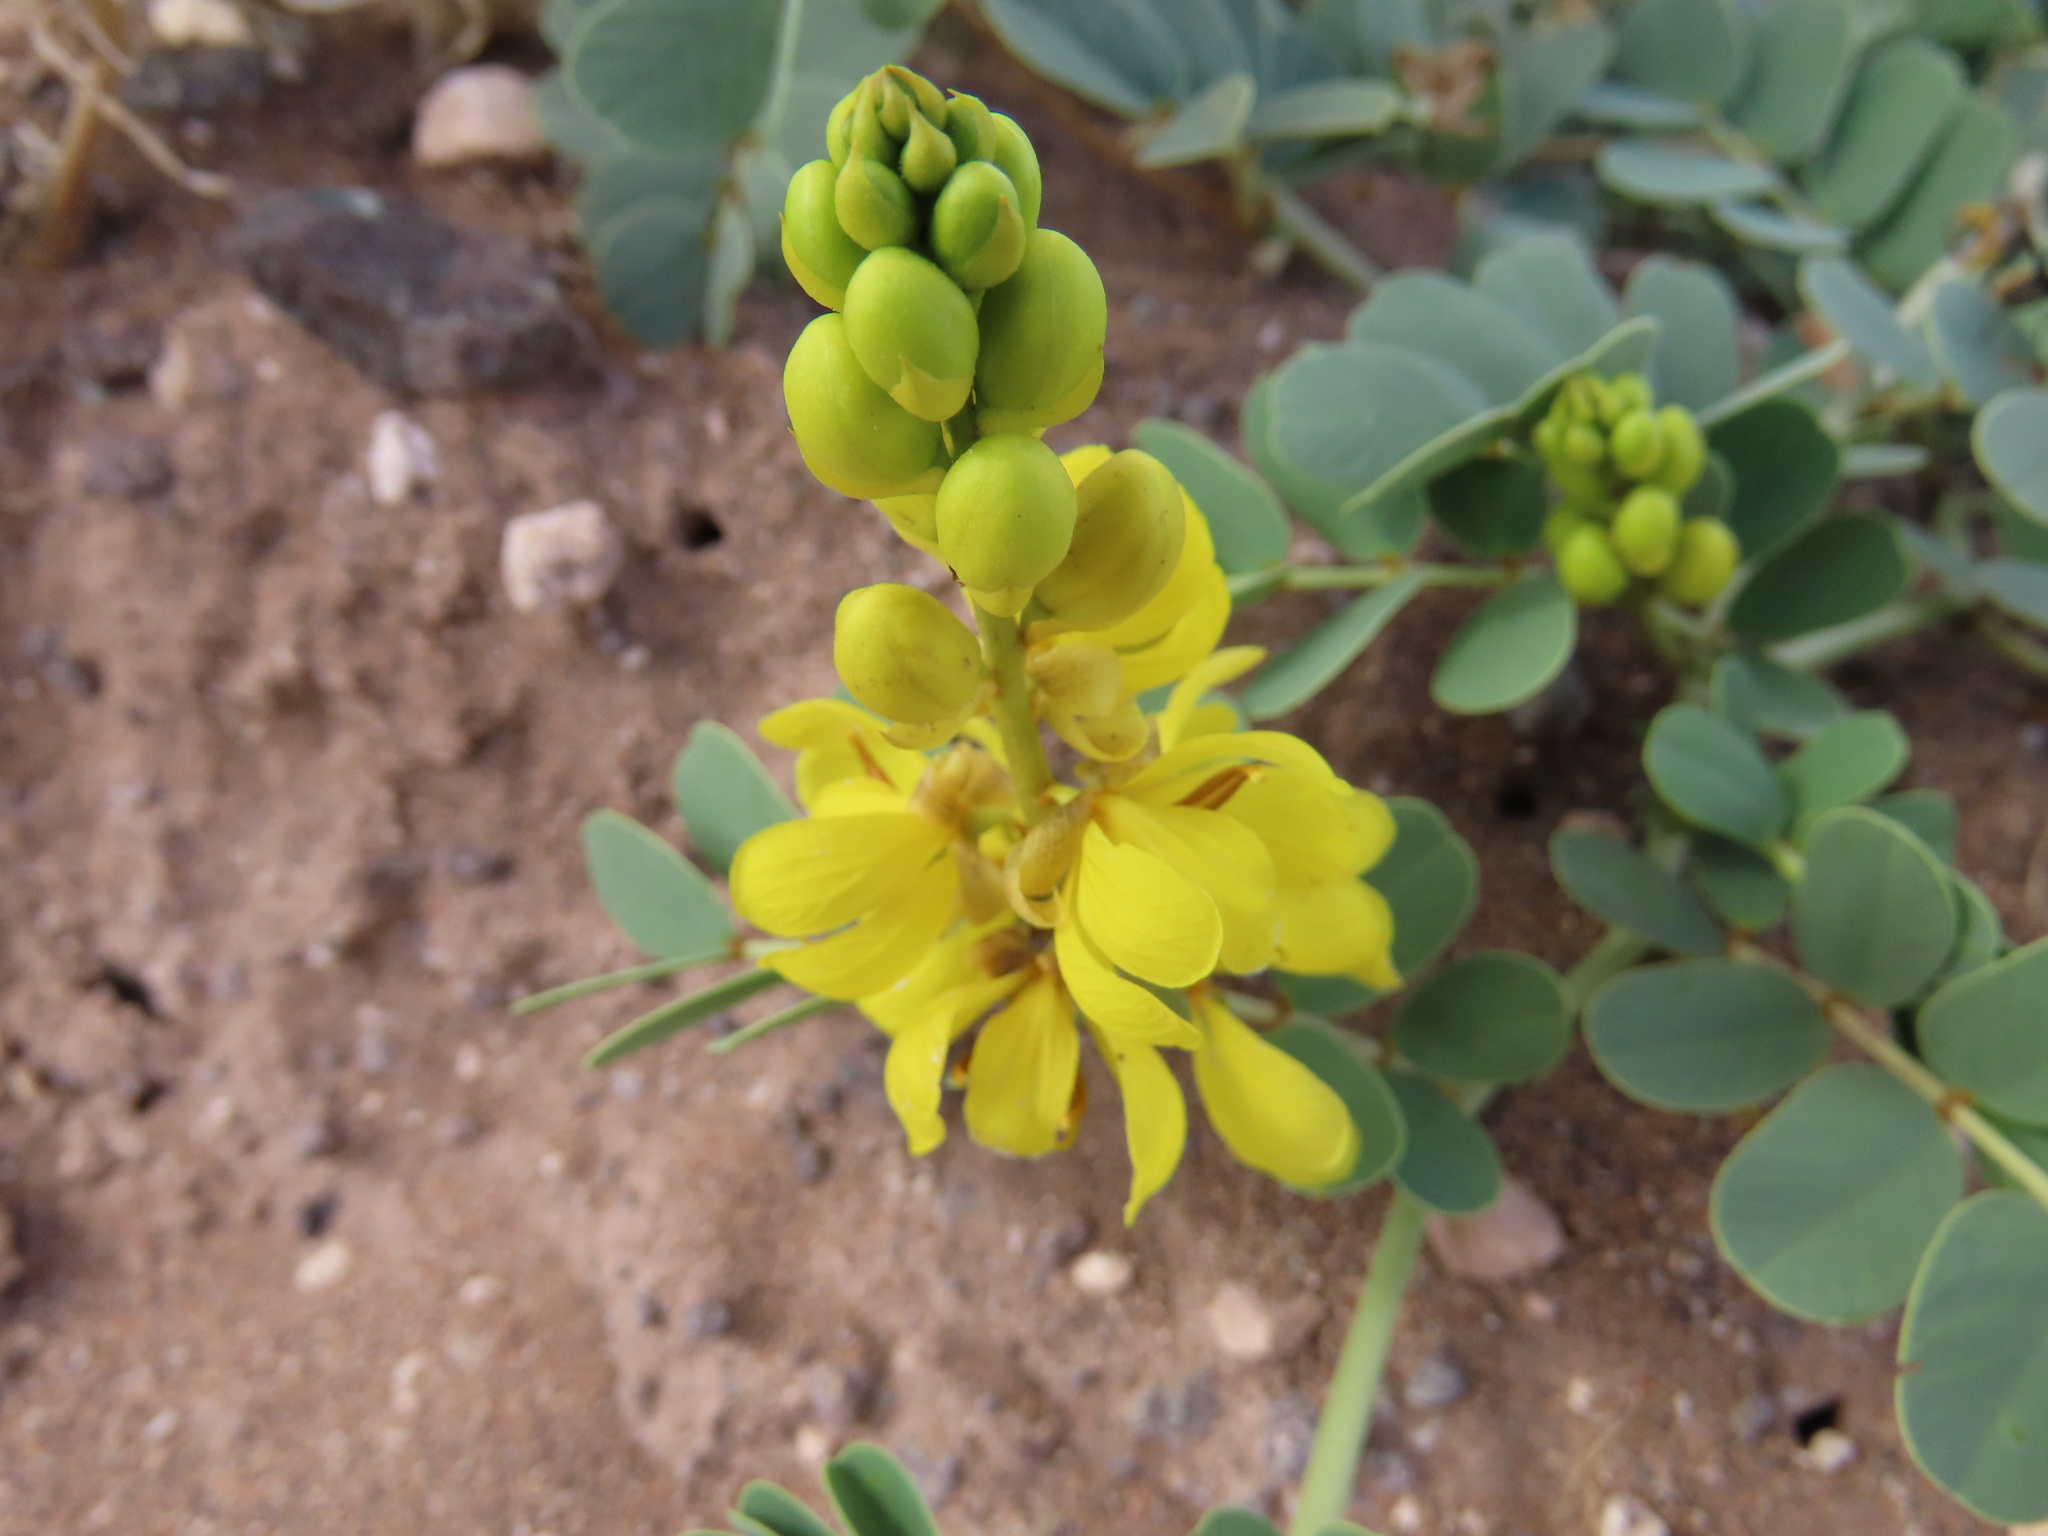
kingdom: Plantae
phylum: Tracheophyta
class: Magnoliopsida
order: Fabales
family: Fabaceae
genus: Senna
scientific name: Senna italica
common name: Port royal senna
